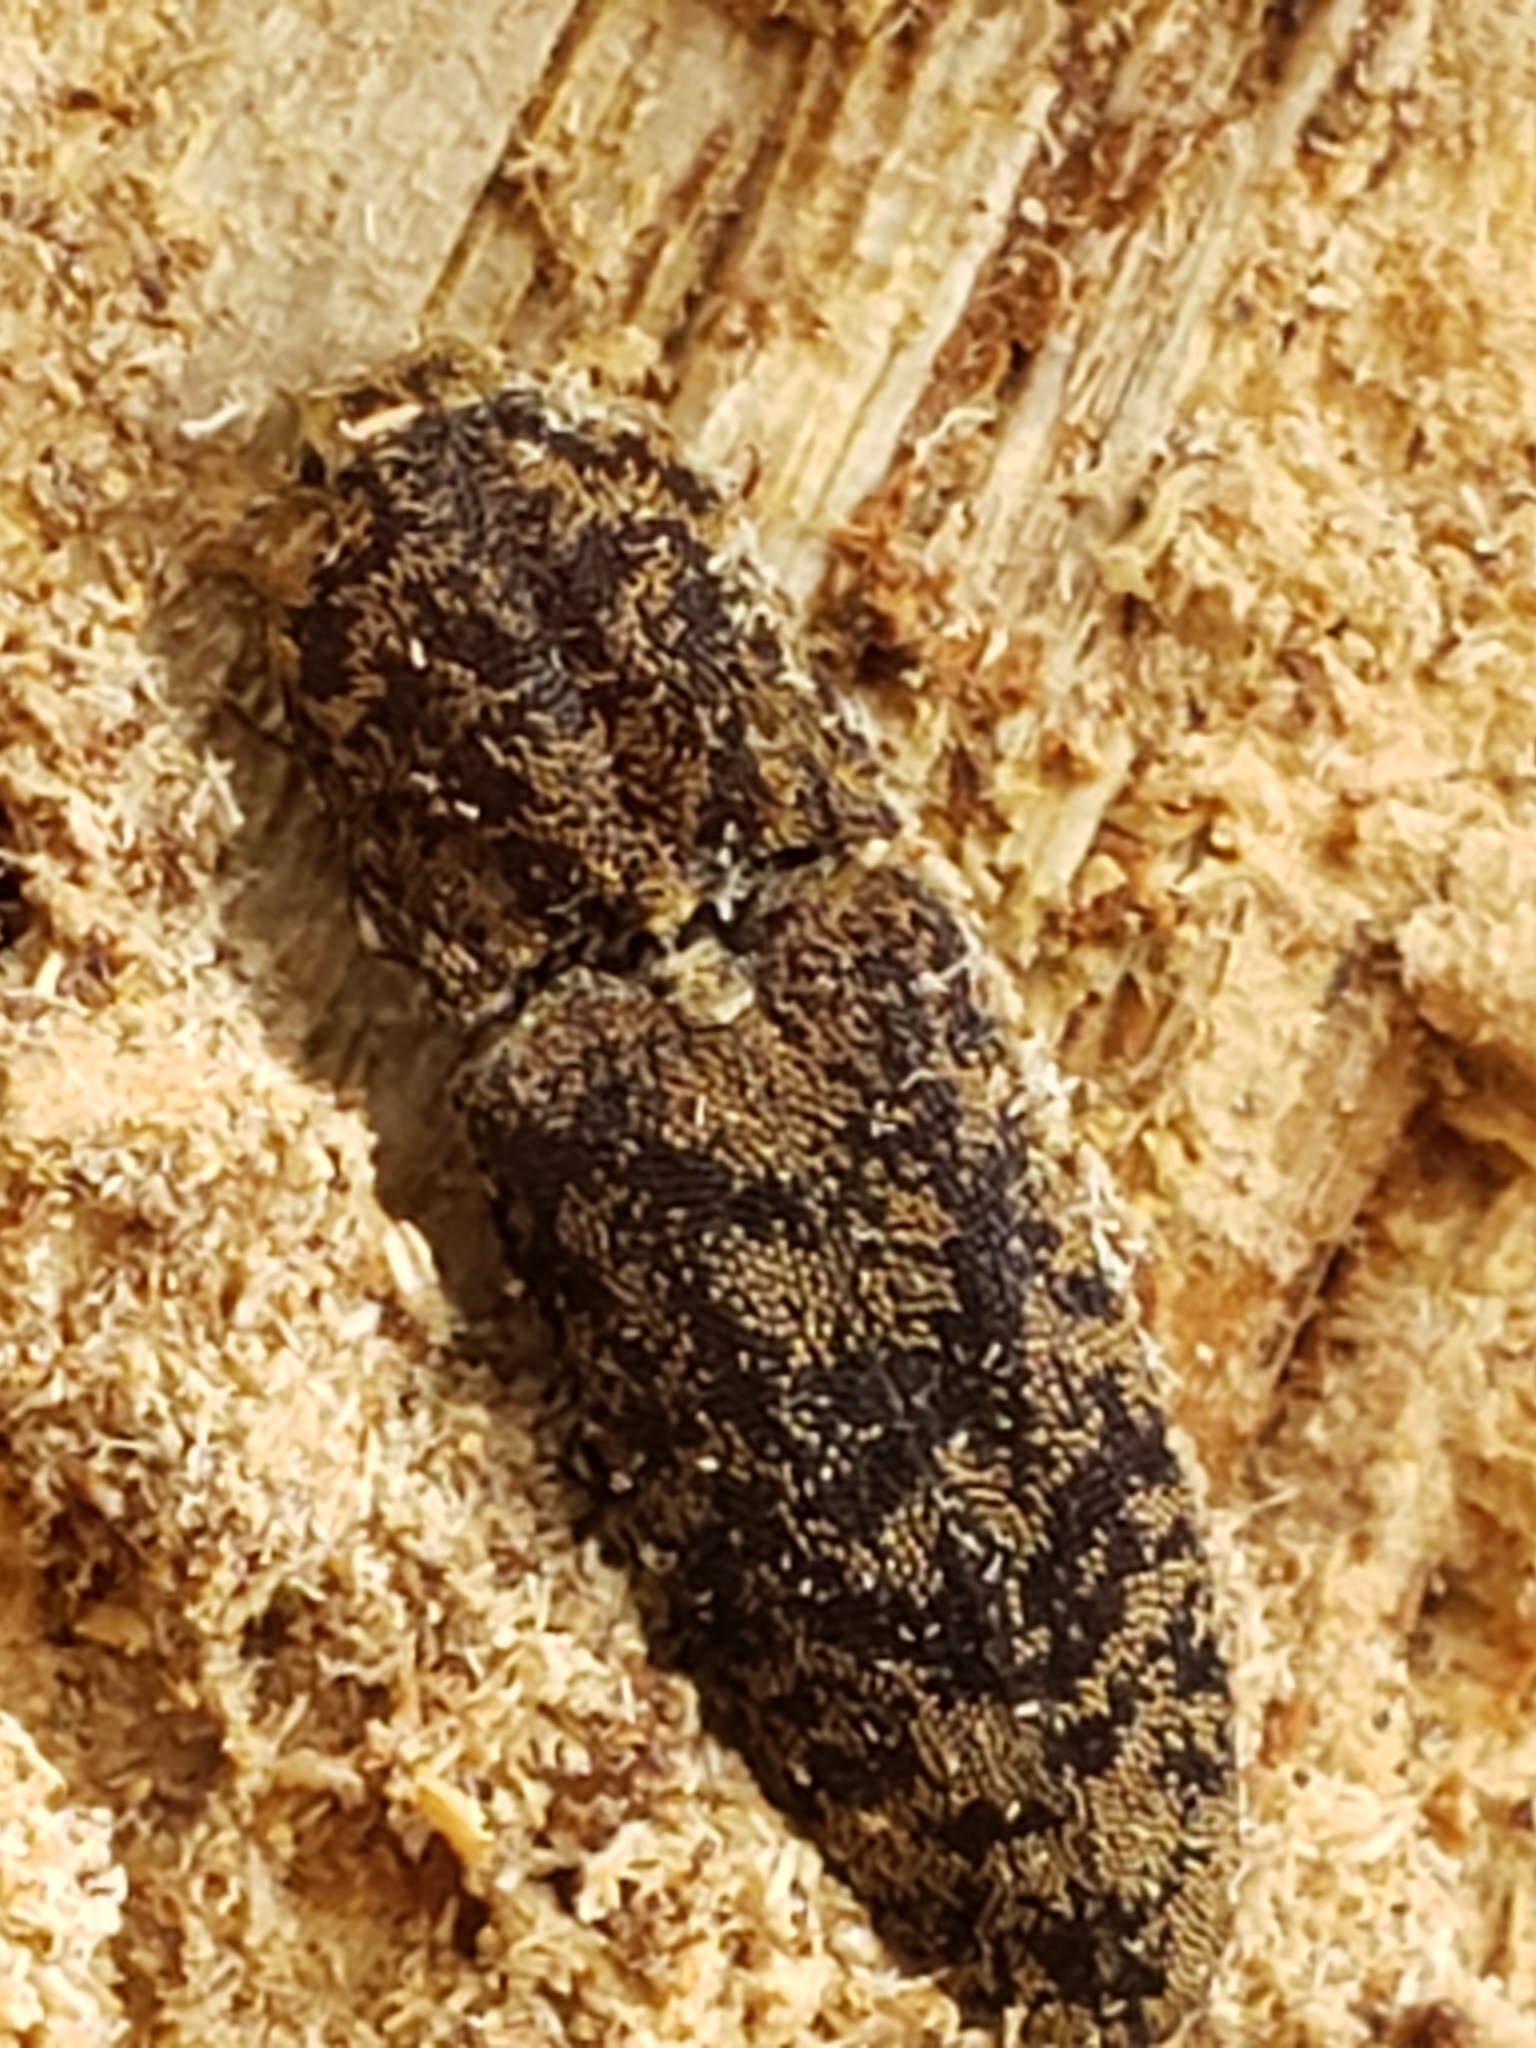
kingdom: Animalia
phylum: Arthropoda
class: Insecta
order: Coleoptera
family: Elateridae
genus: Lacon
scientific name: Lacon marmoratus
